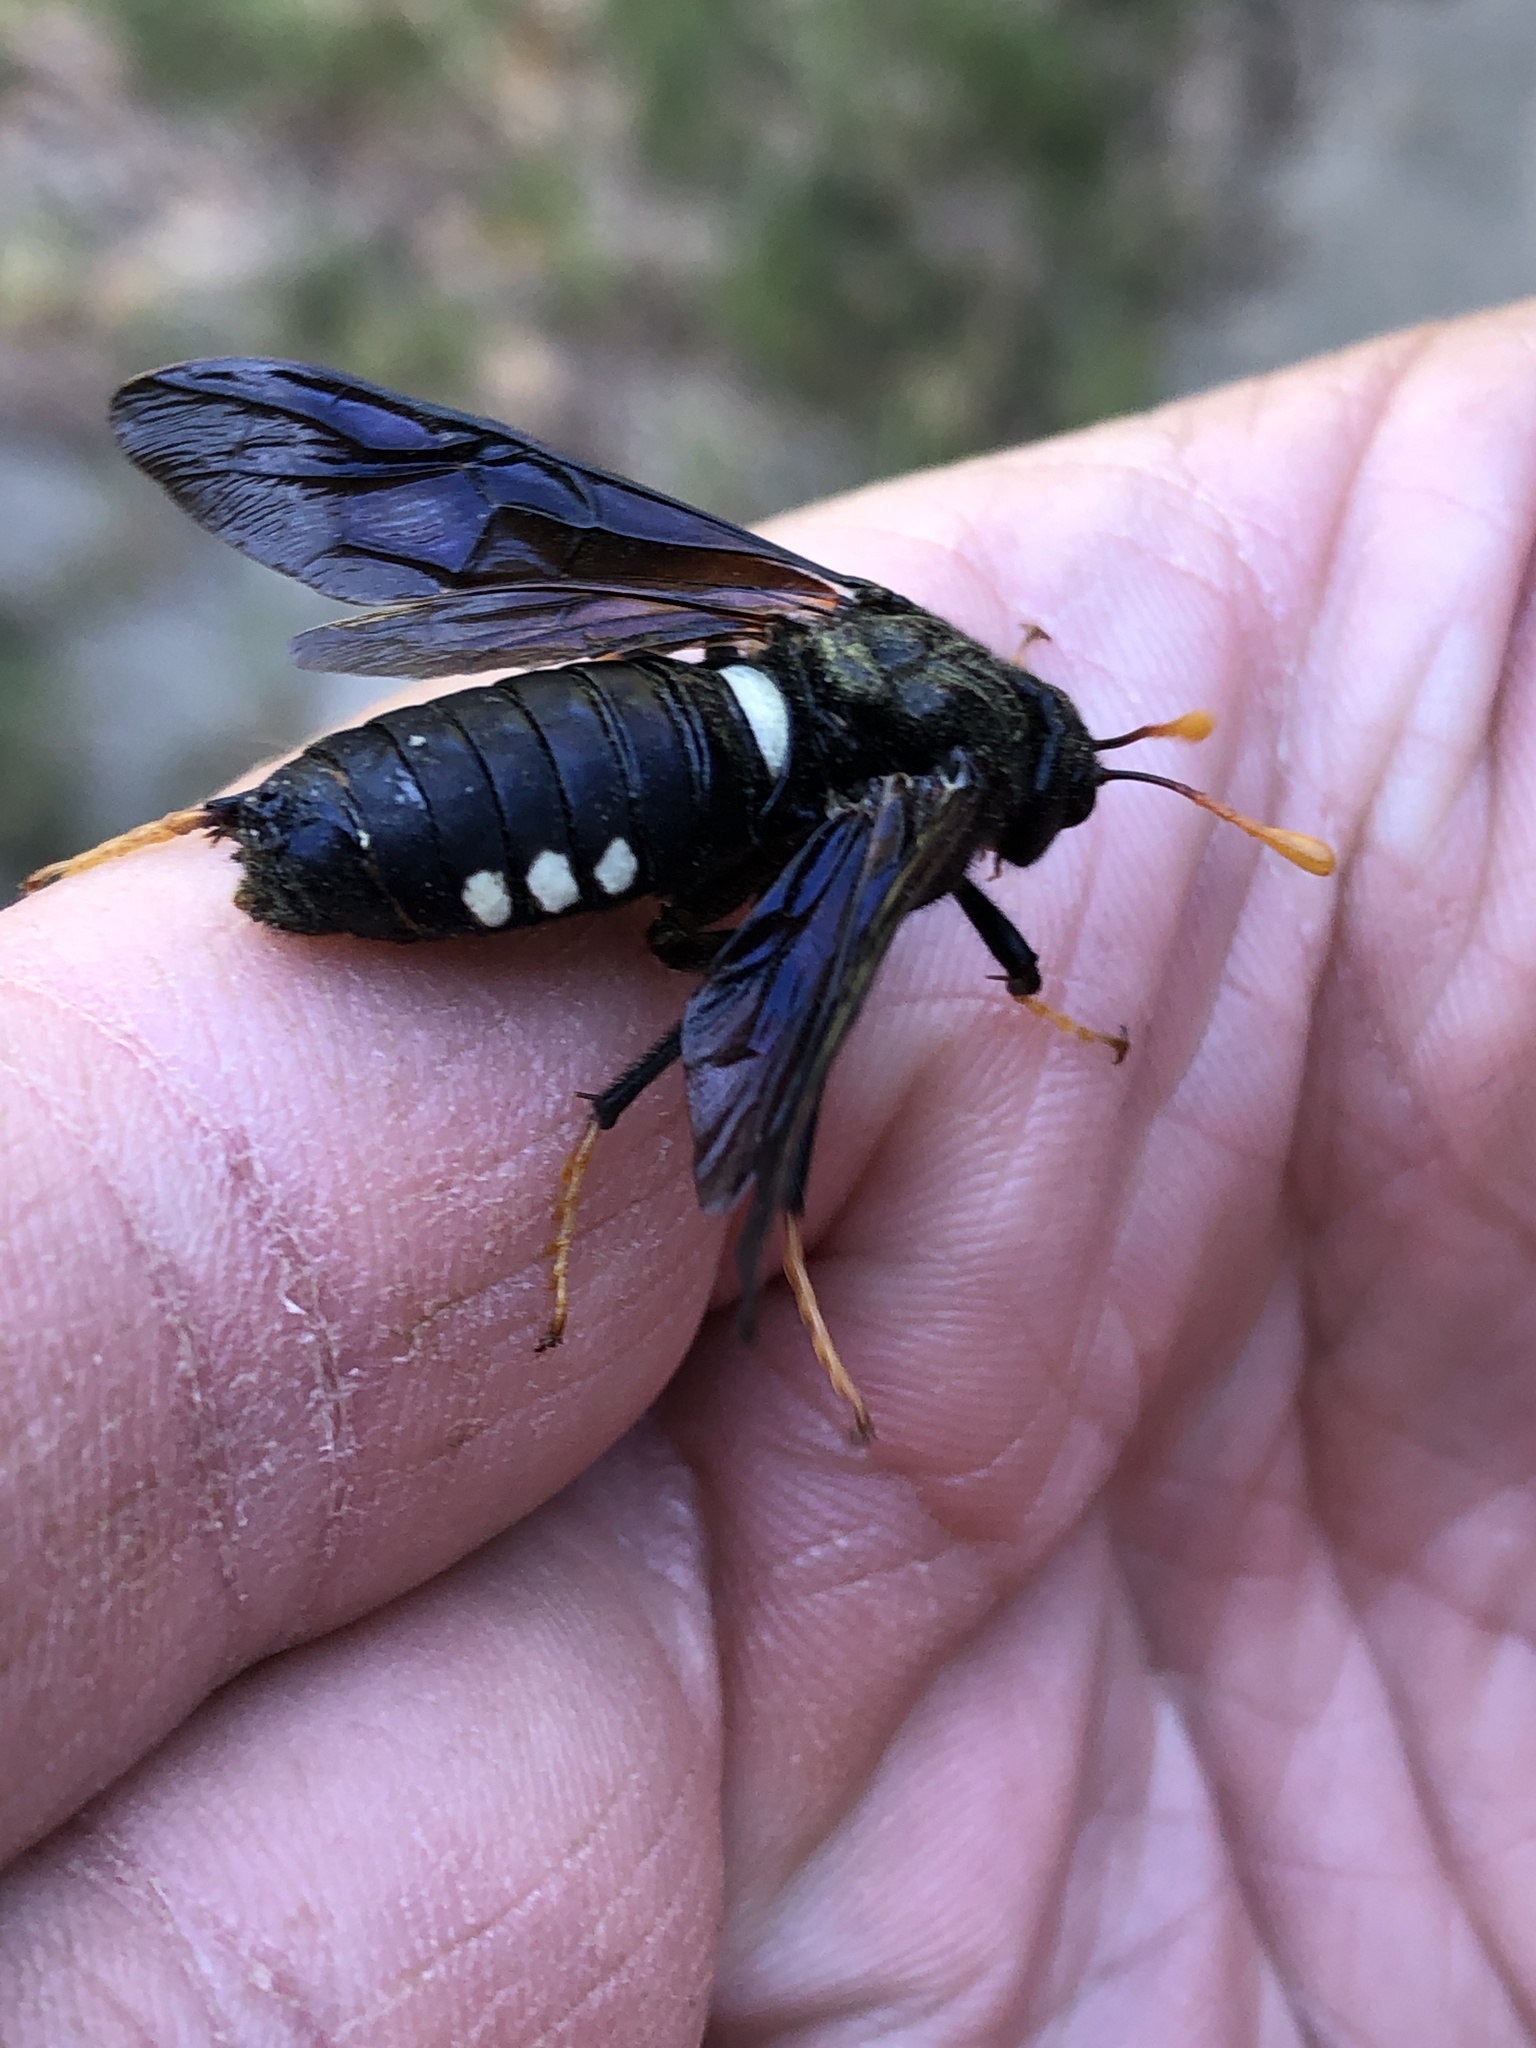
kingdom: Animalia
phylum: Arthropoda
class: Insecta
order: Hymenoptera
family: Cimbicidae
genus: Cimbex
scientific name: Cimbex americana
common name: Elm sawfly
